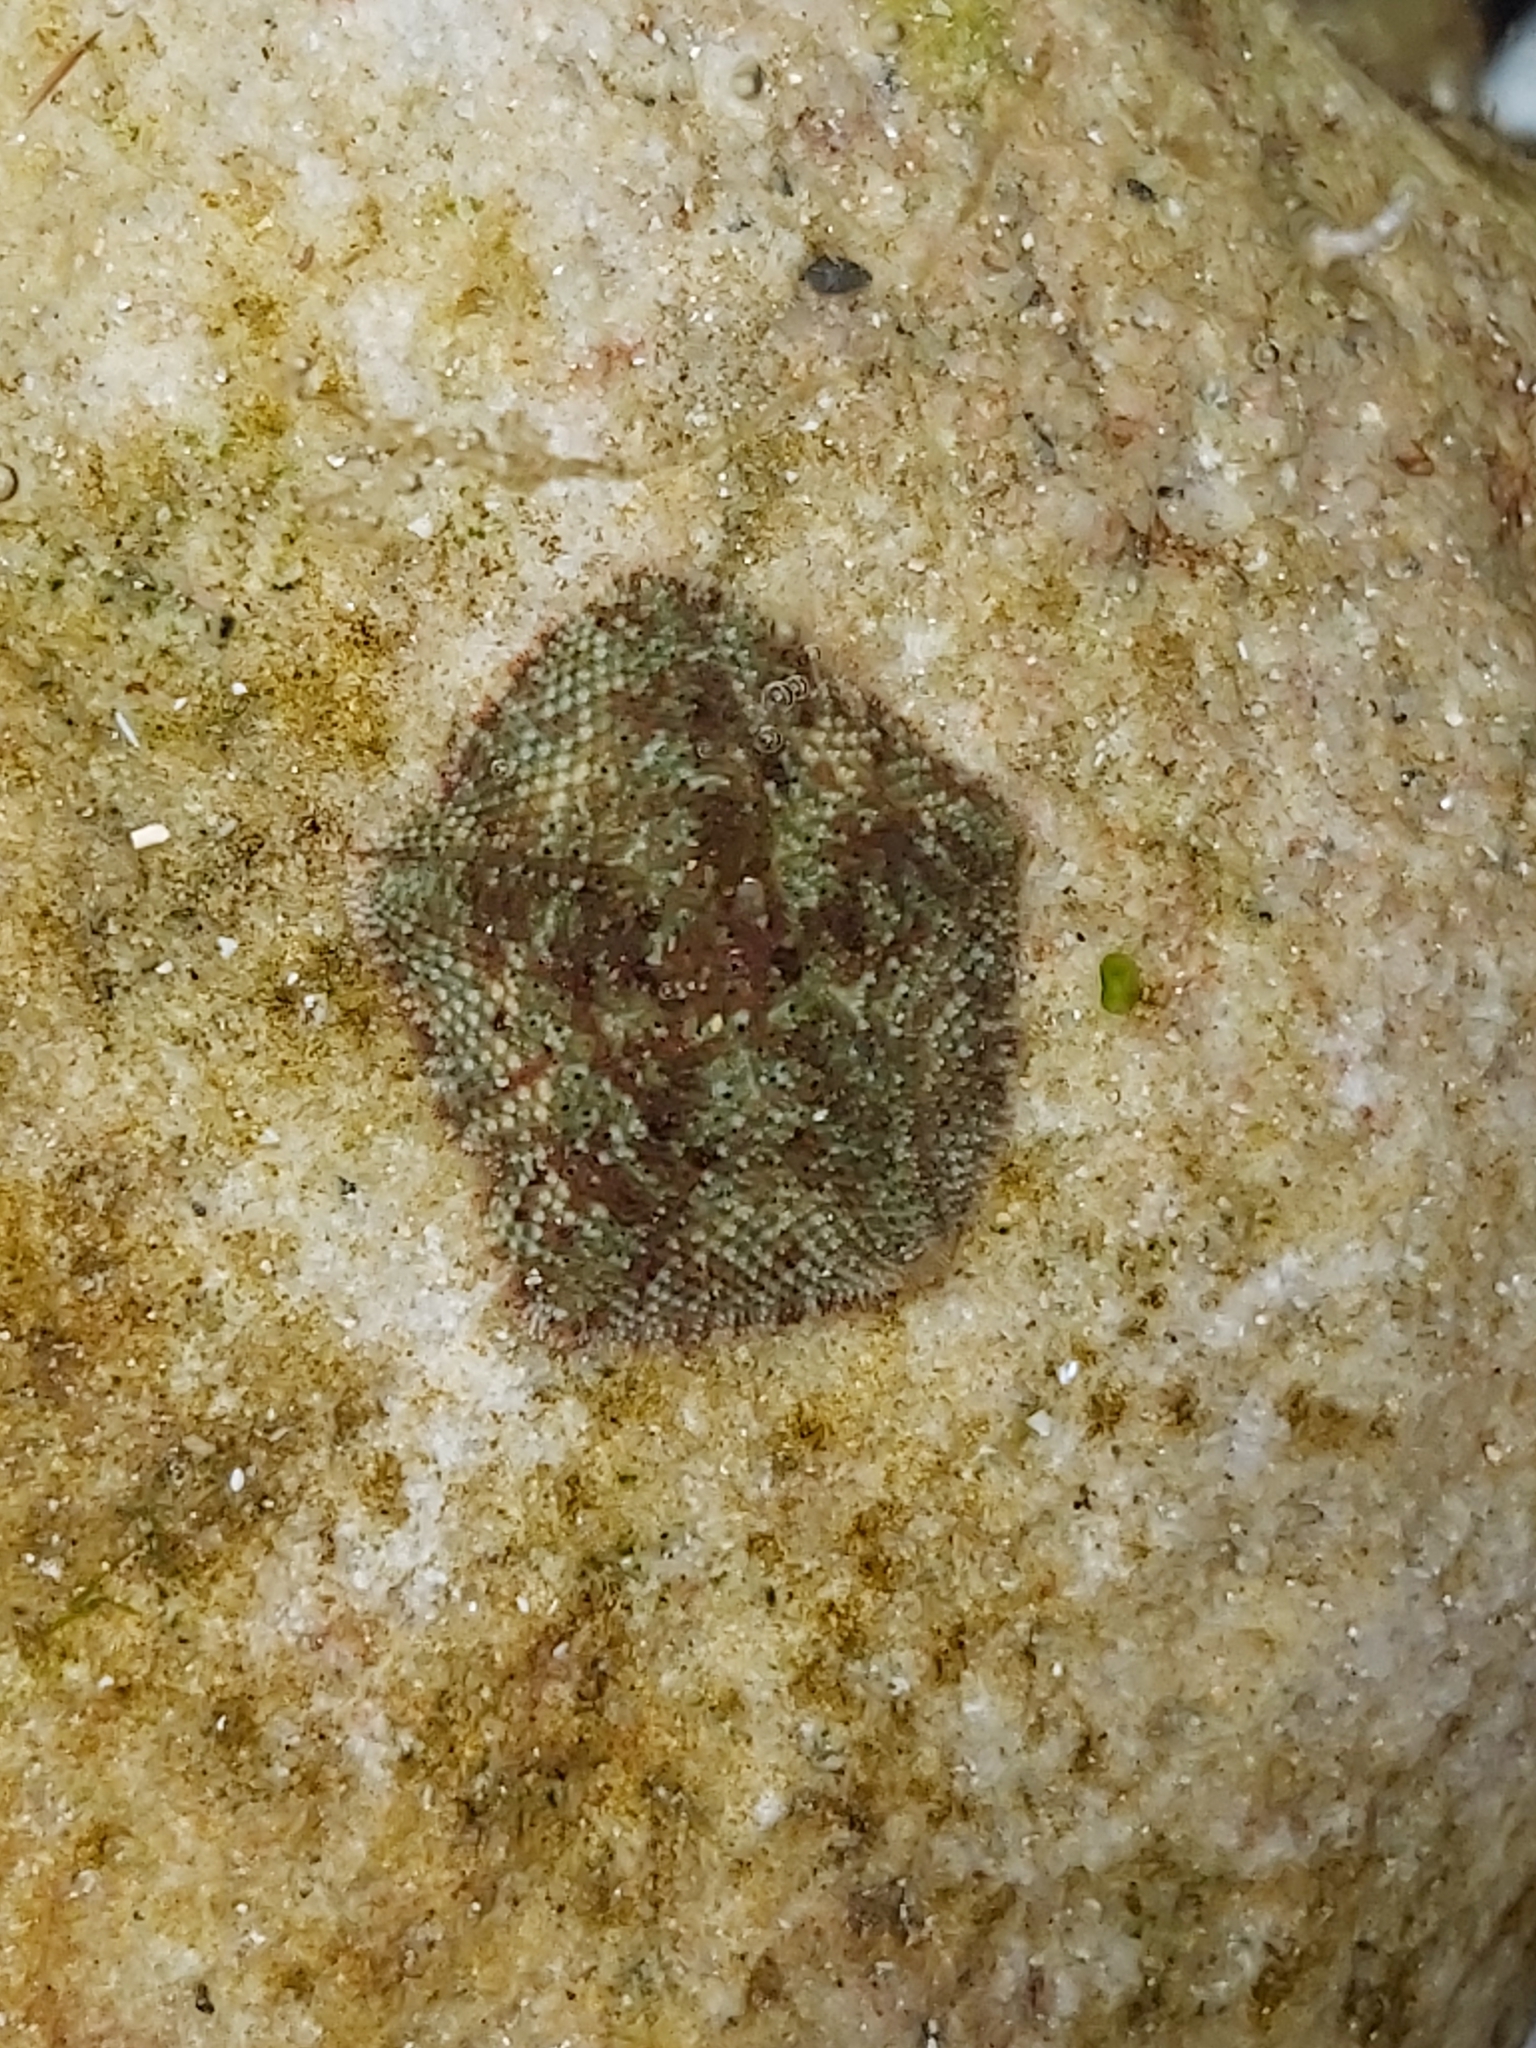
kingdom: Animalia
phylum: Echinodermata
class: Asteroidea
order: Valvatida
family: Asterinidae
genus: Parvulastra
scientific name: Parvulastra exigua
